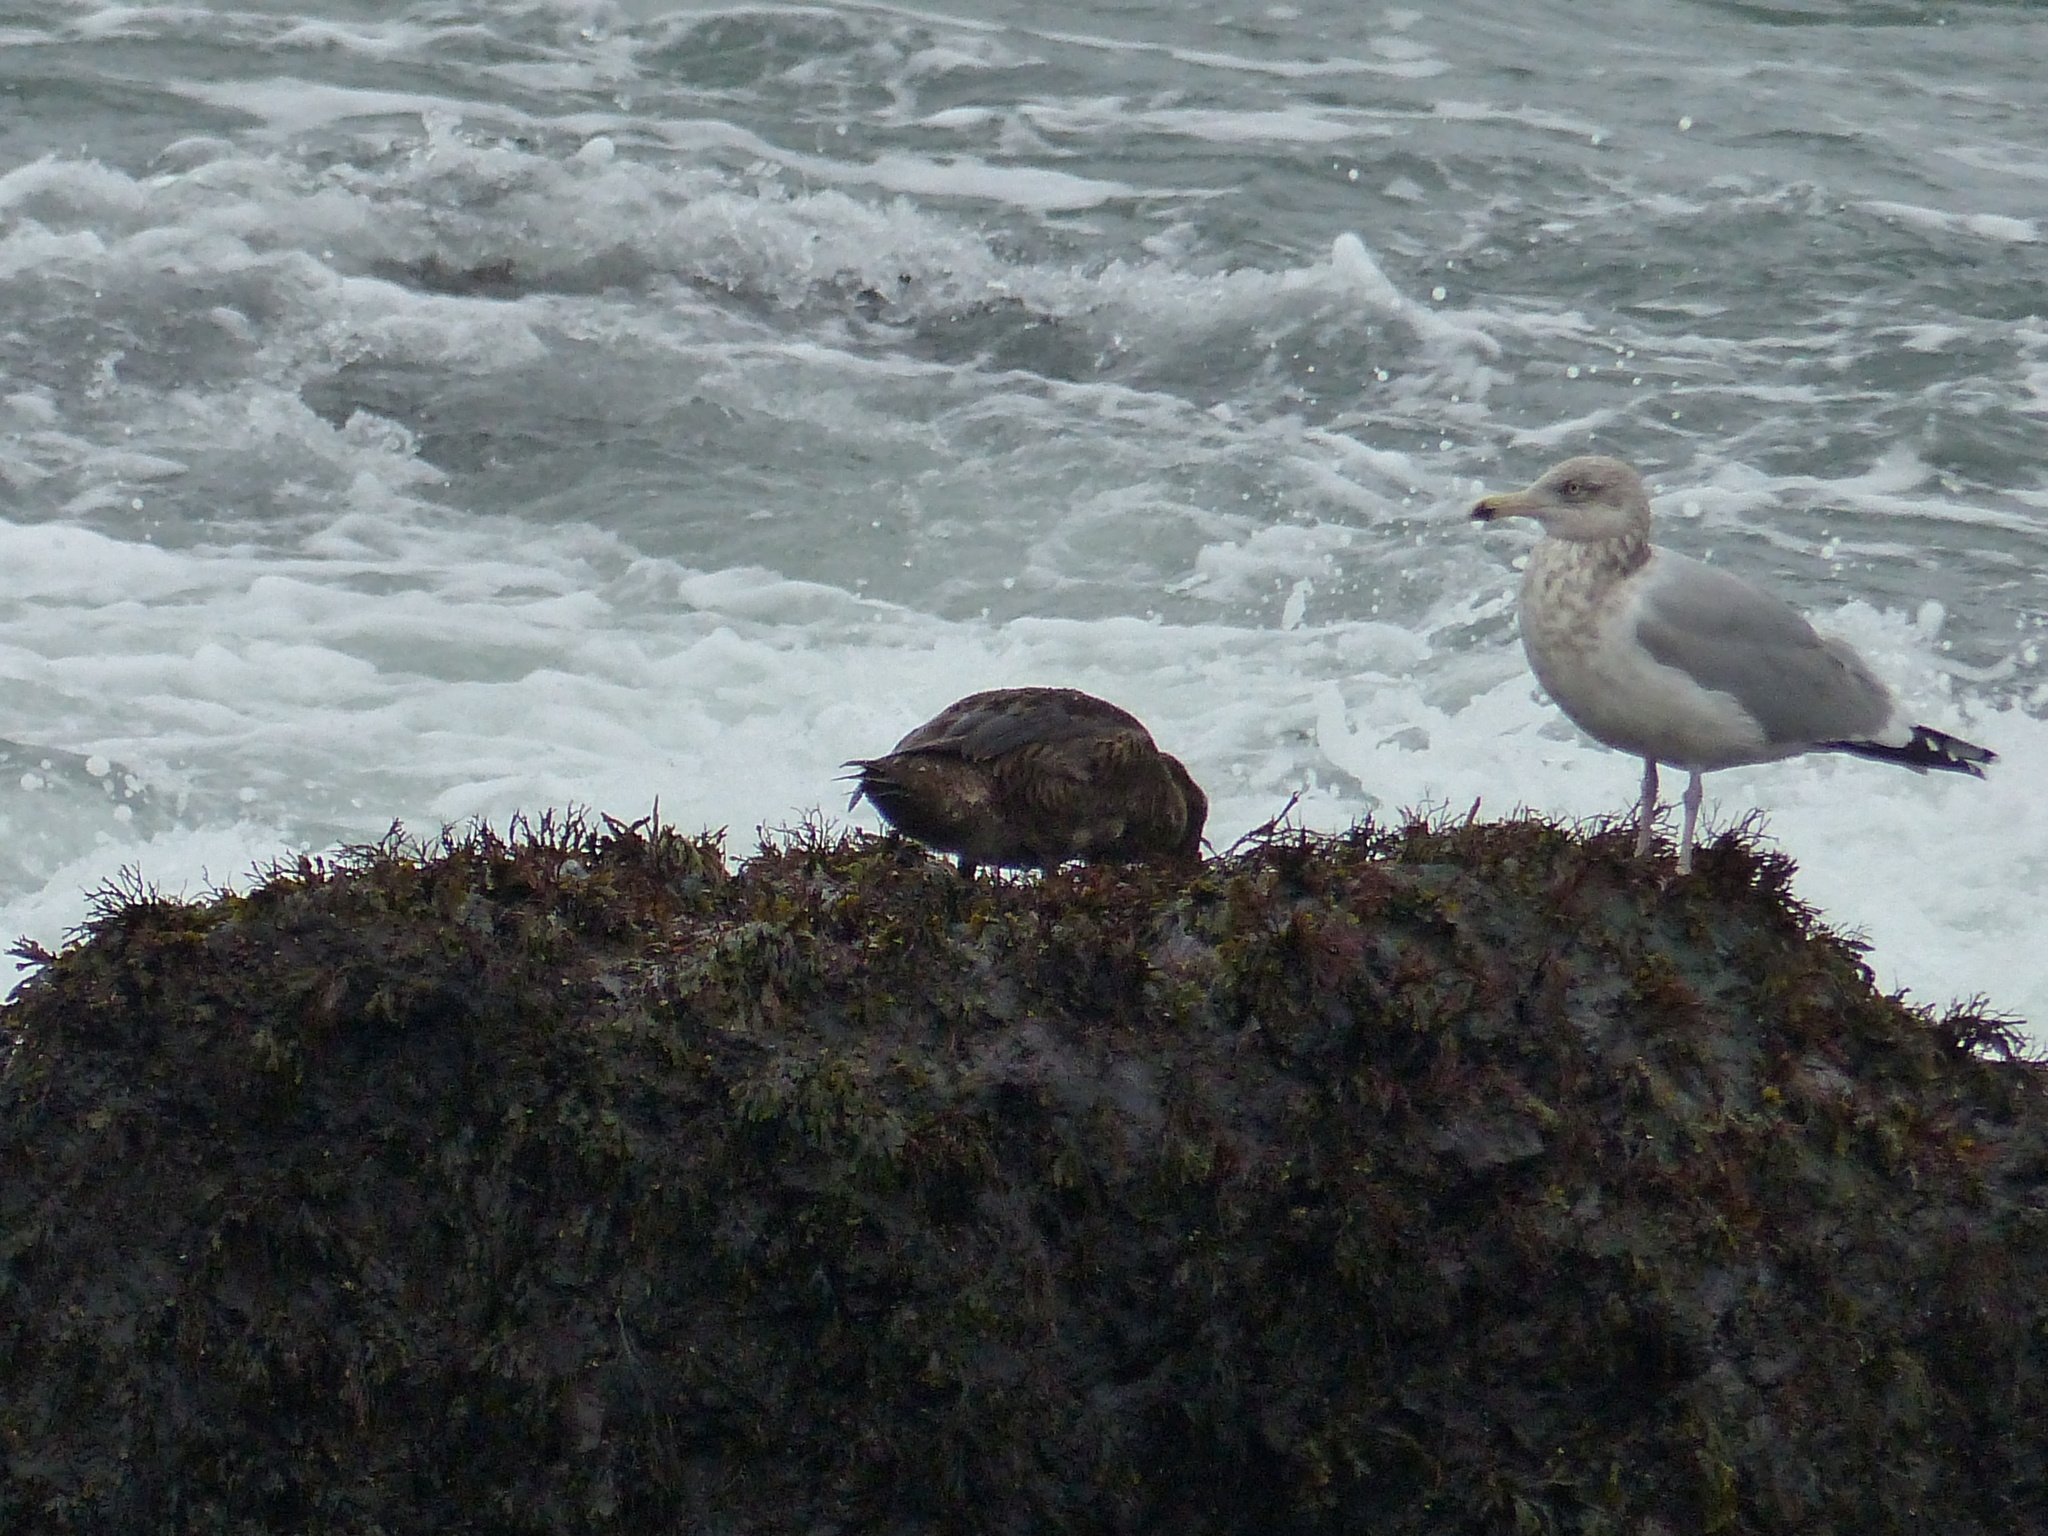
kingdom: Animalia
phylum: Chordata
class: Aves
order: Charadriiformes
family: Laridae
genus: Larus
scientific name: Larus argentatus
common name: Herring gull
